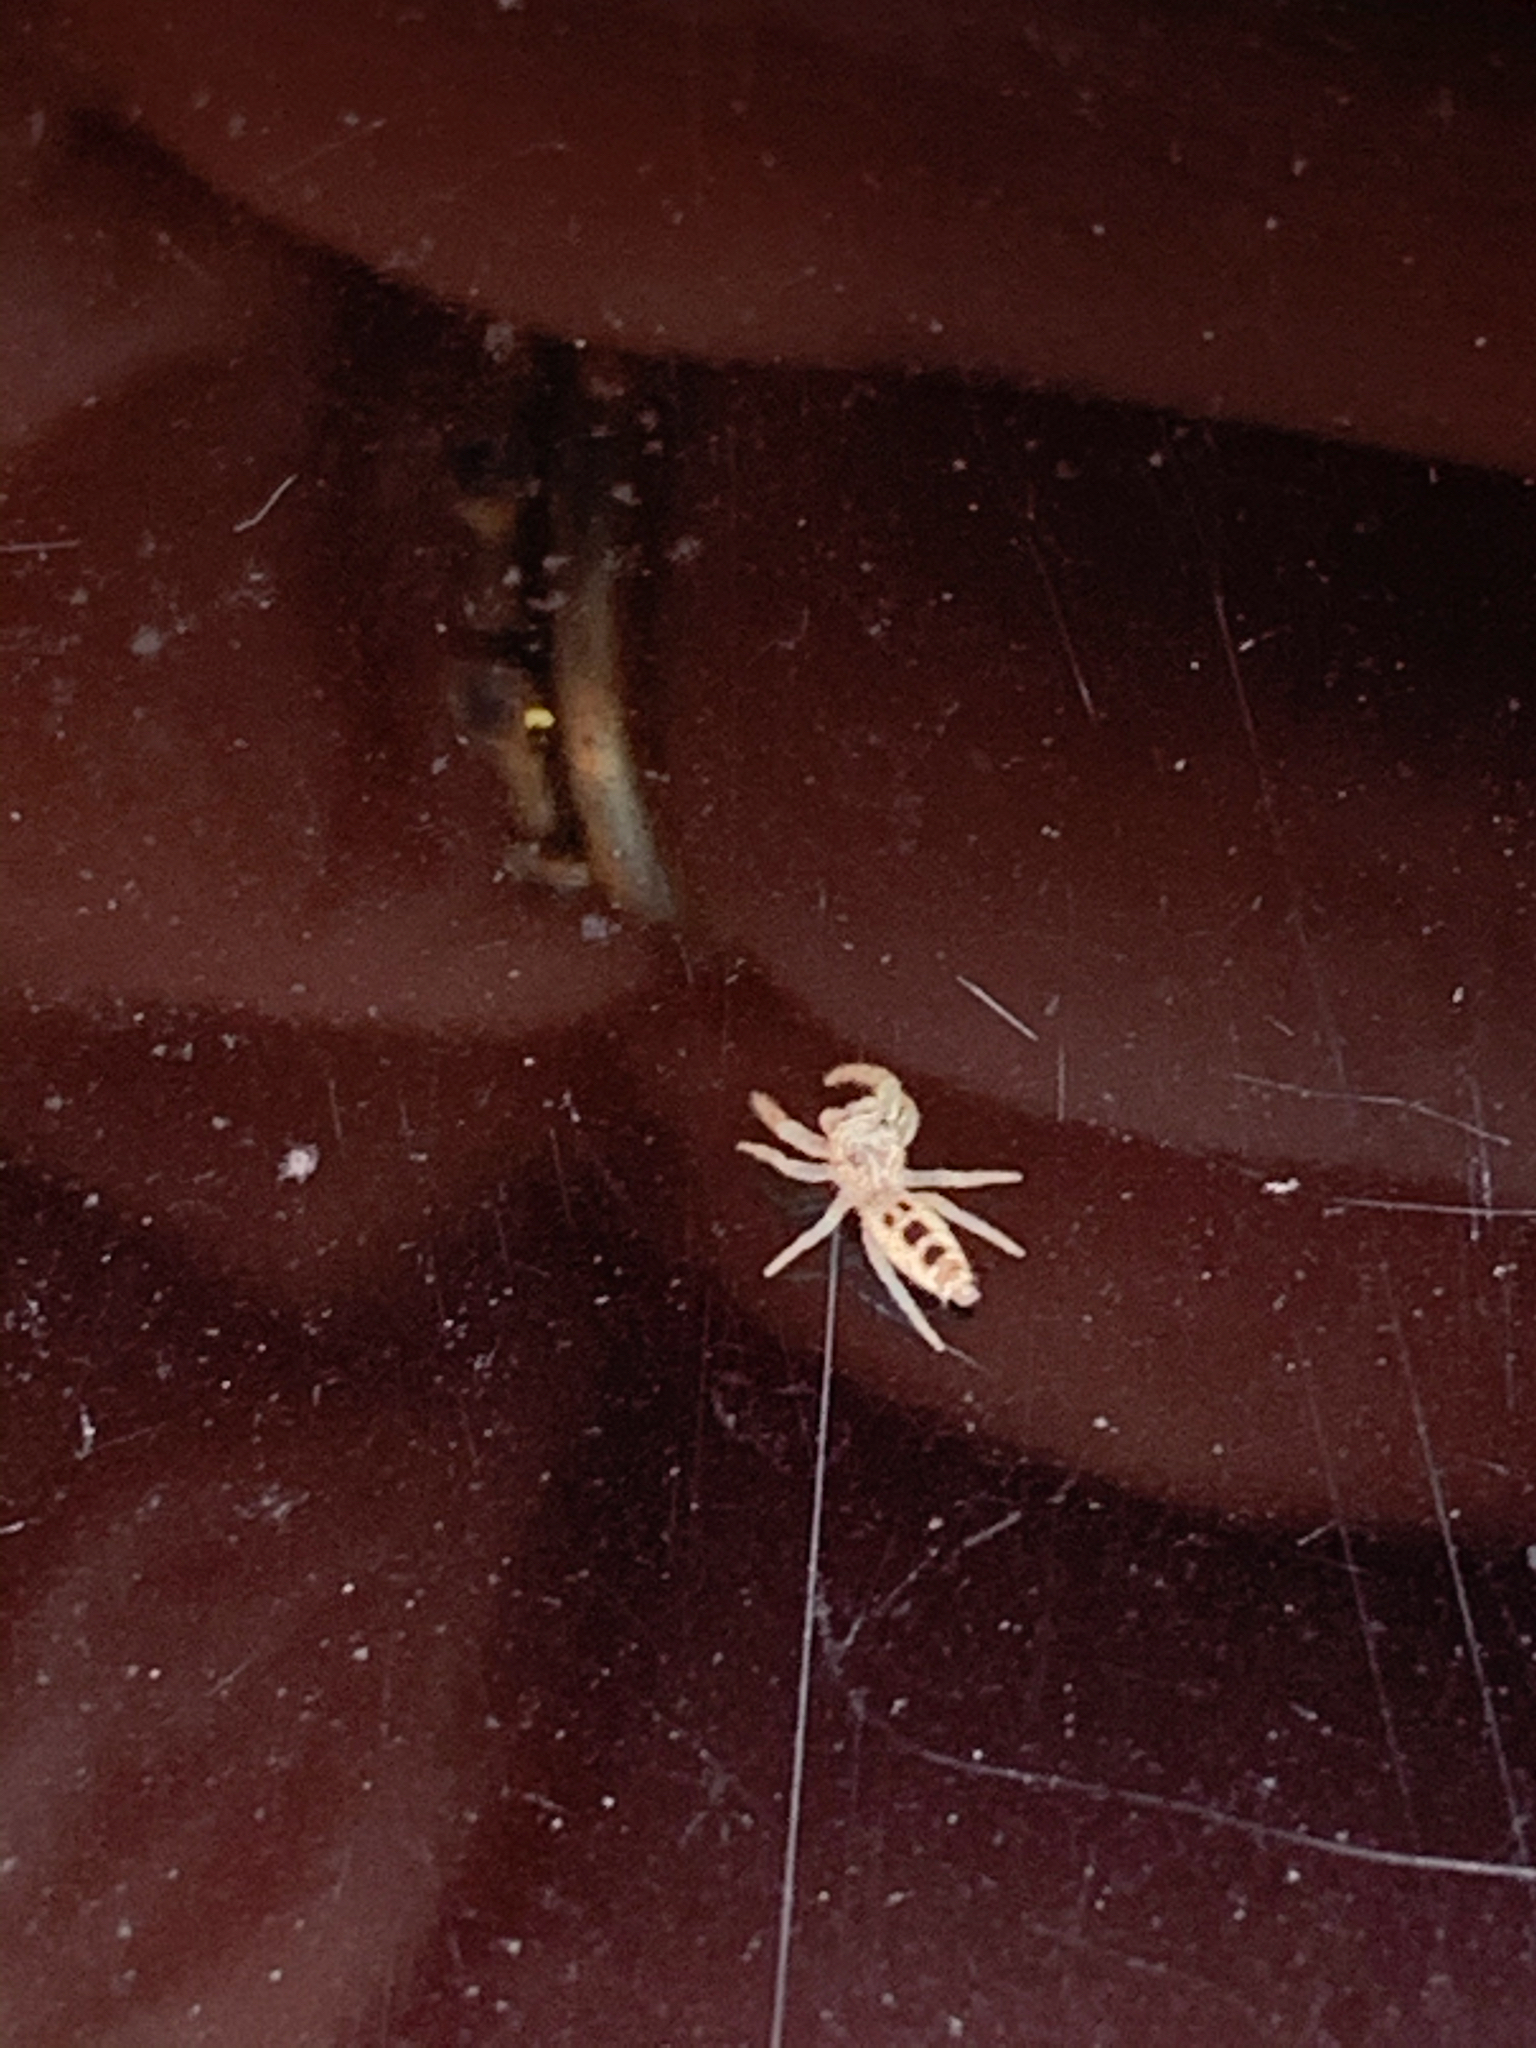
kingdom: Animalia
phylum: Arthropoda
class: Arachnida
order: Araneae
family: Salticidae
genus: Hentzia
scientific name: Hentzia
